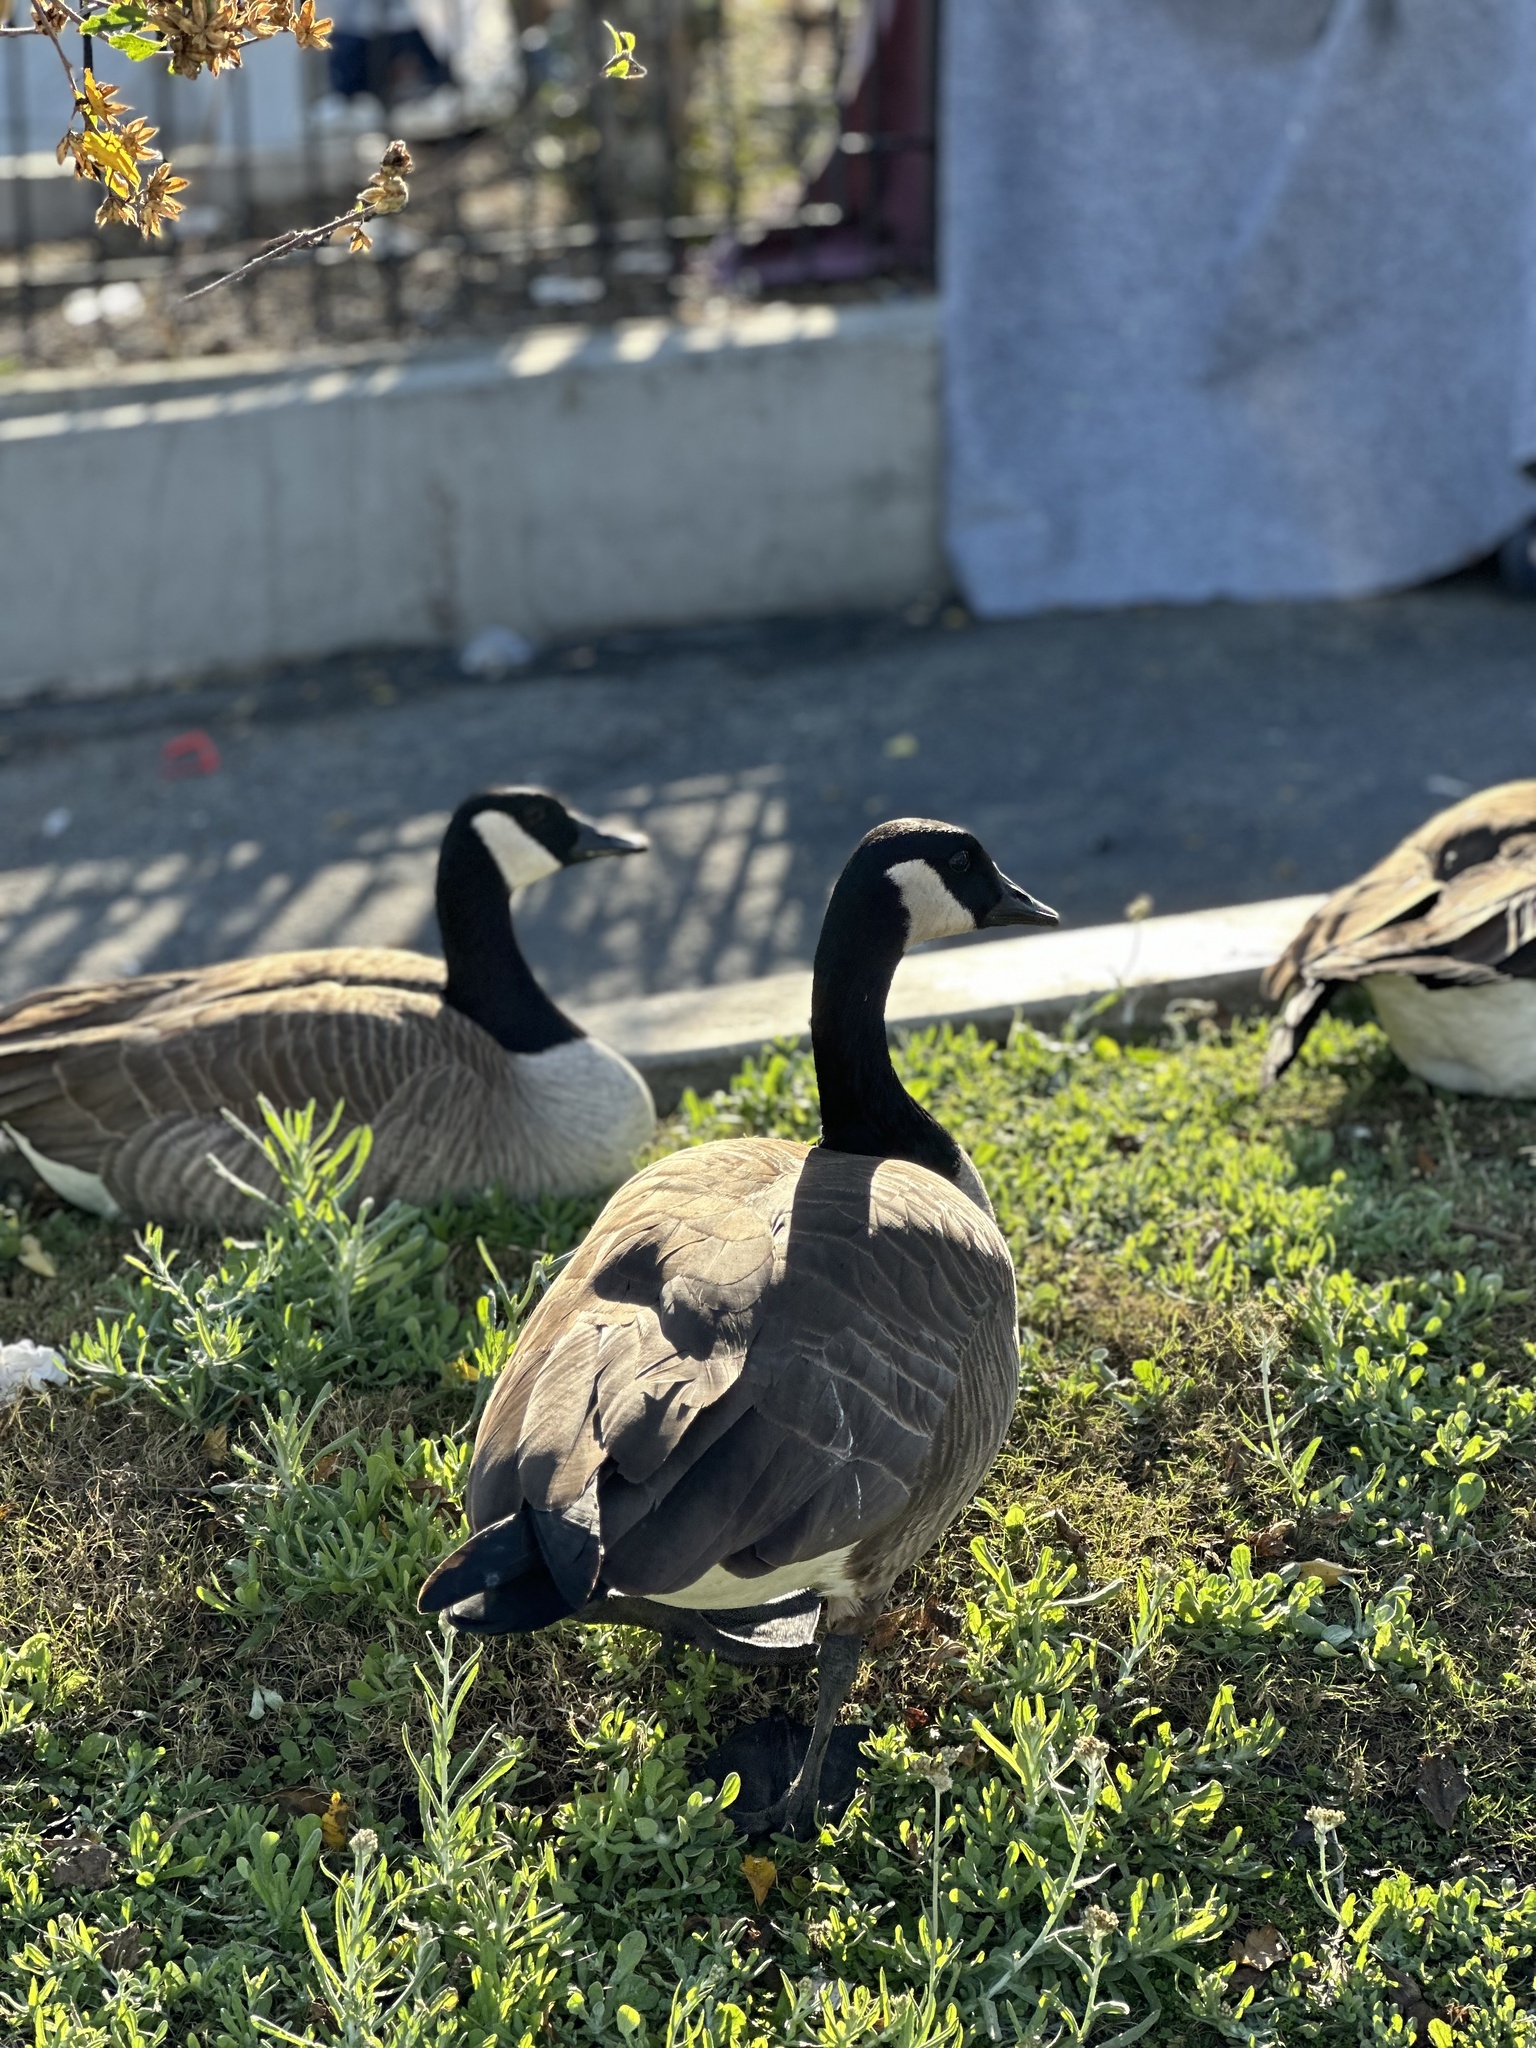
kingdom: Animalia
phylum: Chordata
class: Aves
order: Anseriformes
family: Anatidae
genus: Branta
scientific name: Branta canadensis
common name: Canada goose
